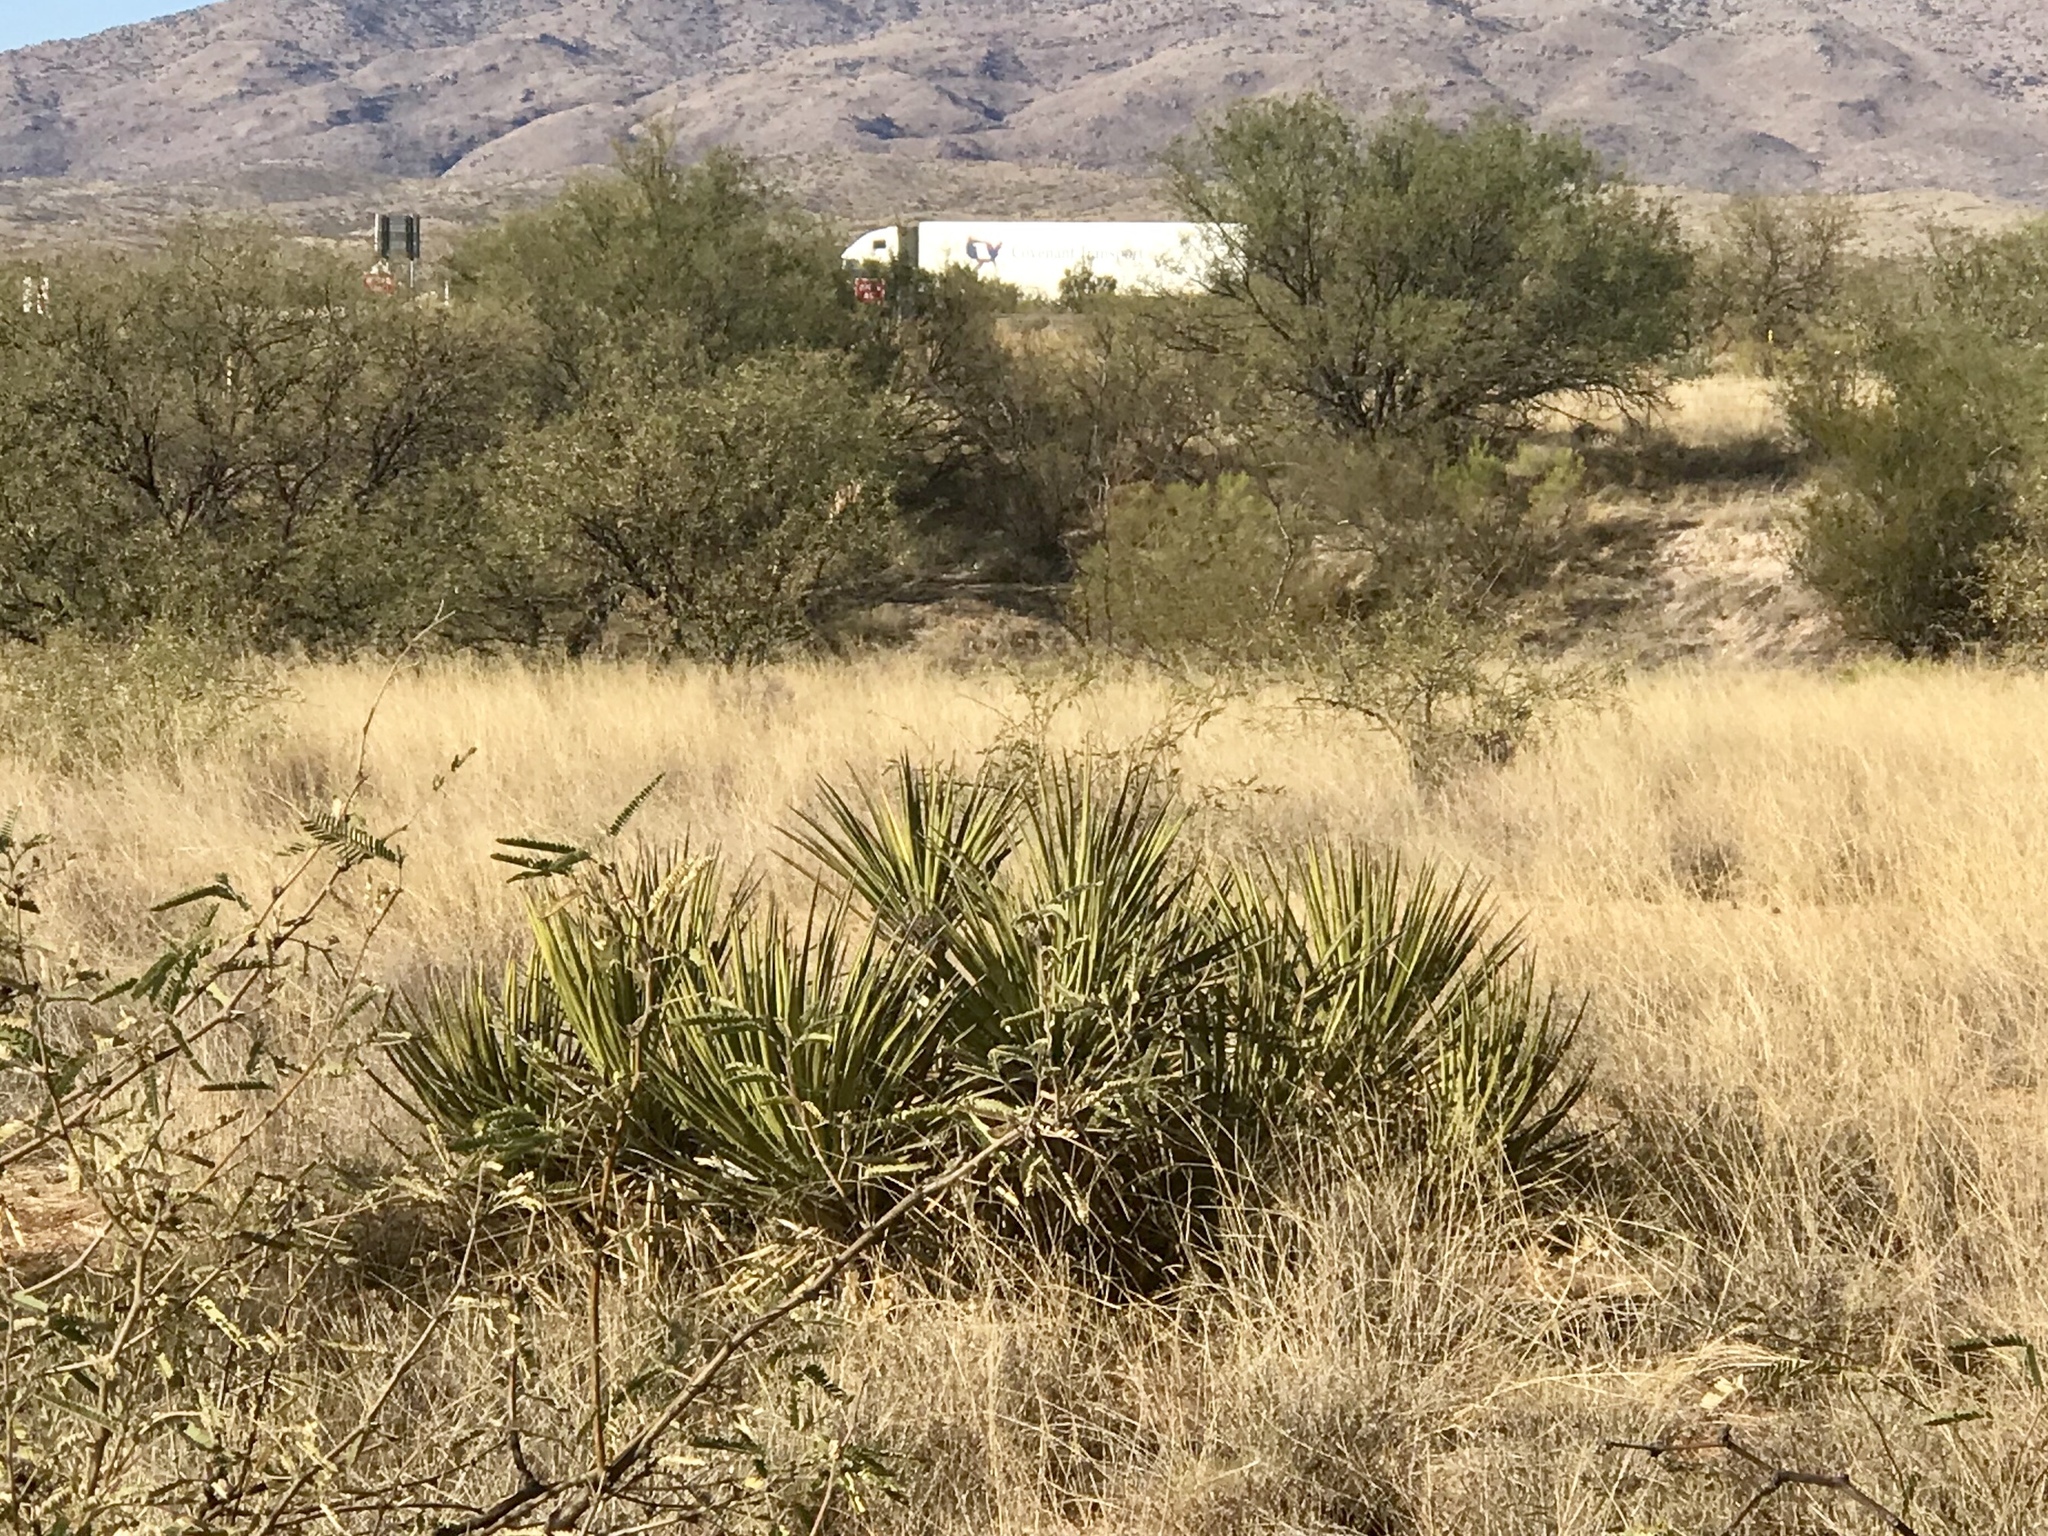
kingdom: Plantae
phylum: Tracheophyta
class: Liliopsida
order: Asparagales
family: Asparagaceae
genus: Yucca
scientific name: Yucca baccata
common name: Banana yucca
